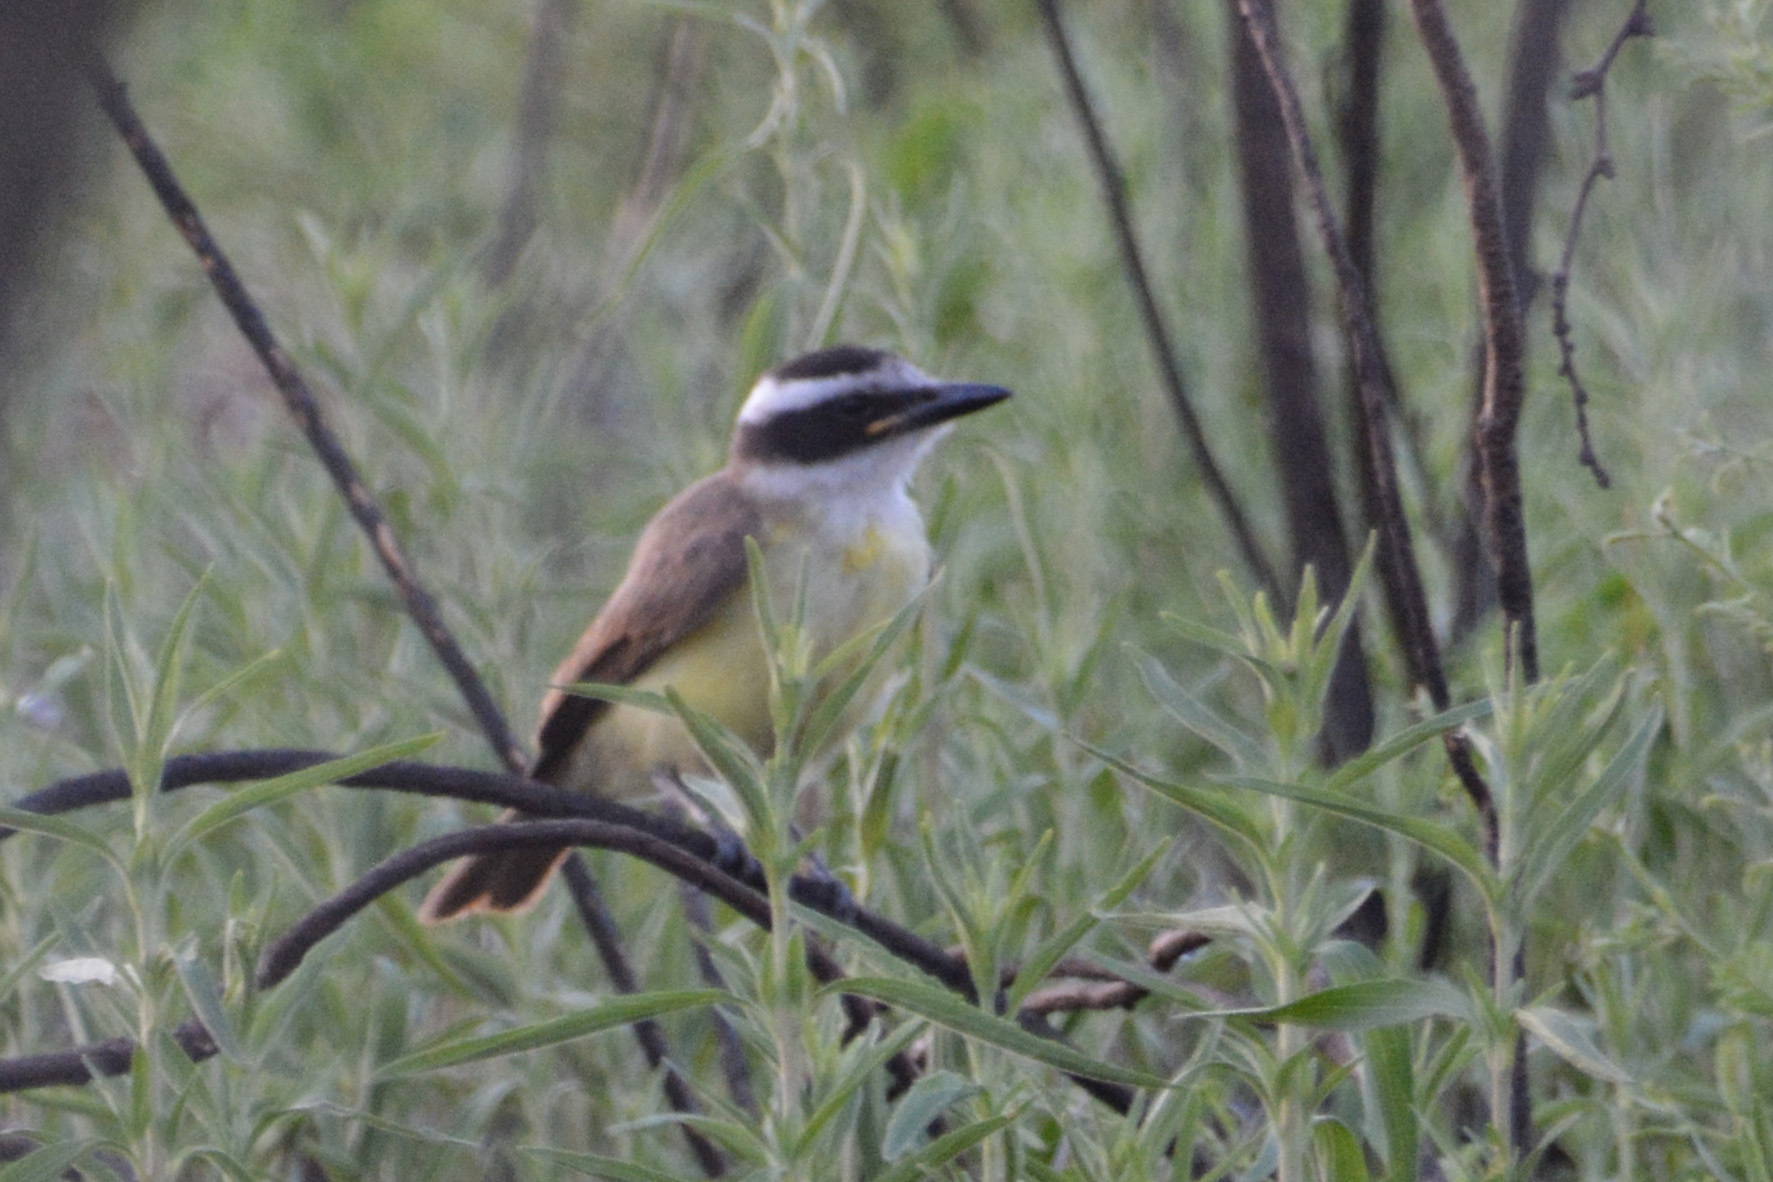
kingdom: Animalia
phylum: Chordata
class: Aves
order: Passeriformes
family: Tyrannidae
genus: Pitangus
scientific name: Pitangus sulphuratus
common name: Great kiskadee
